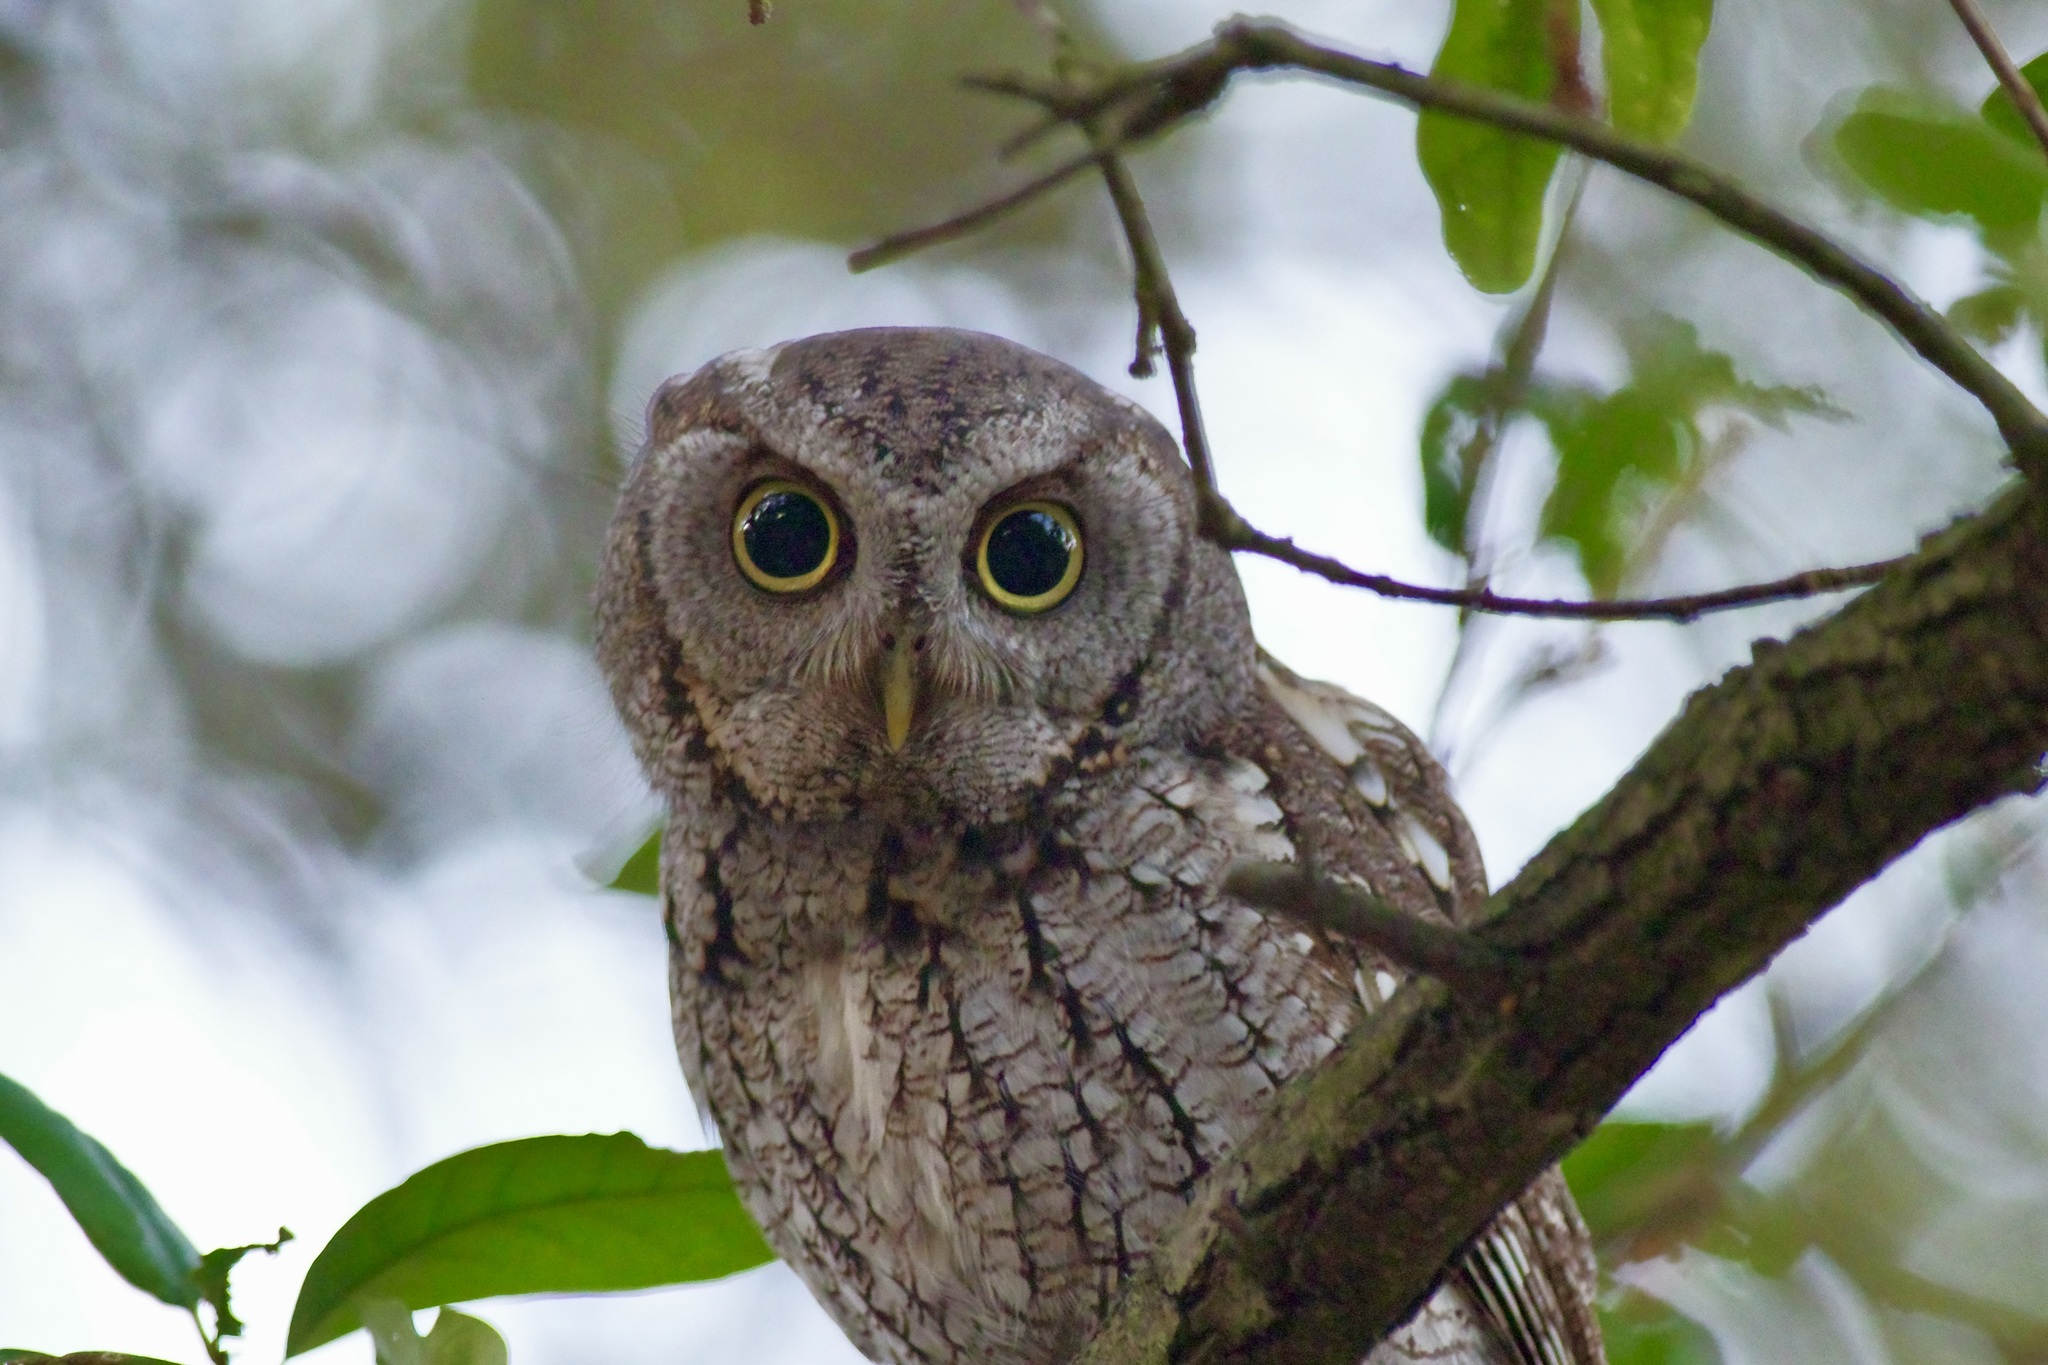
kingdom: Animalia
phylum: Chordata
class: Aves
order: Strigiformes
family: Strigidae
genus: Megascops
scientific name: Megascops asio
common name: Eastern screech-owl
